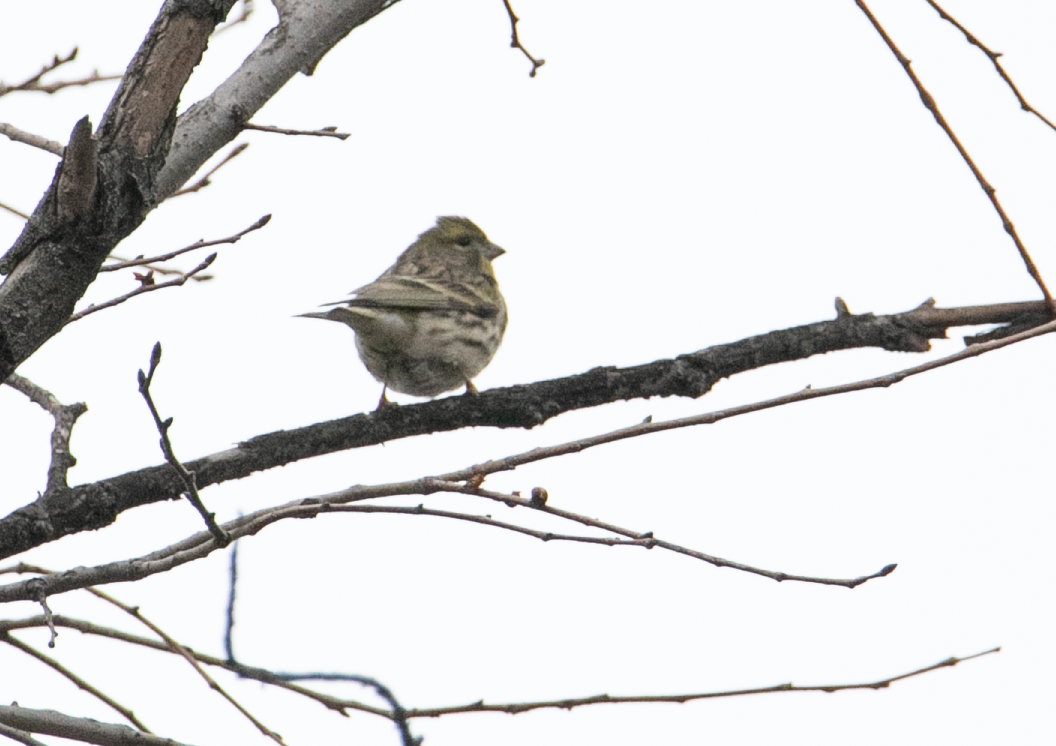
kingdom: Animalia
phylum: Chordata
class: Aves
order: Passeriformes
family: Fringillidae
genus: Serinus
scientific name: Serinus serinus
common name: European serin
